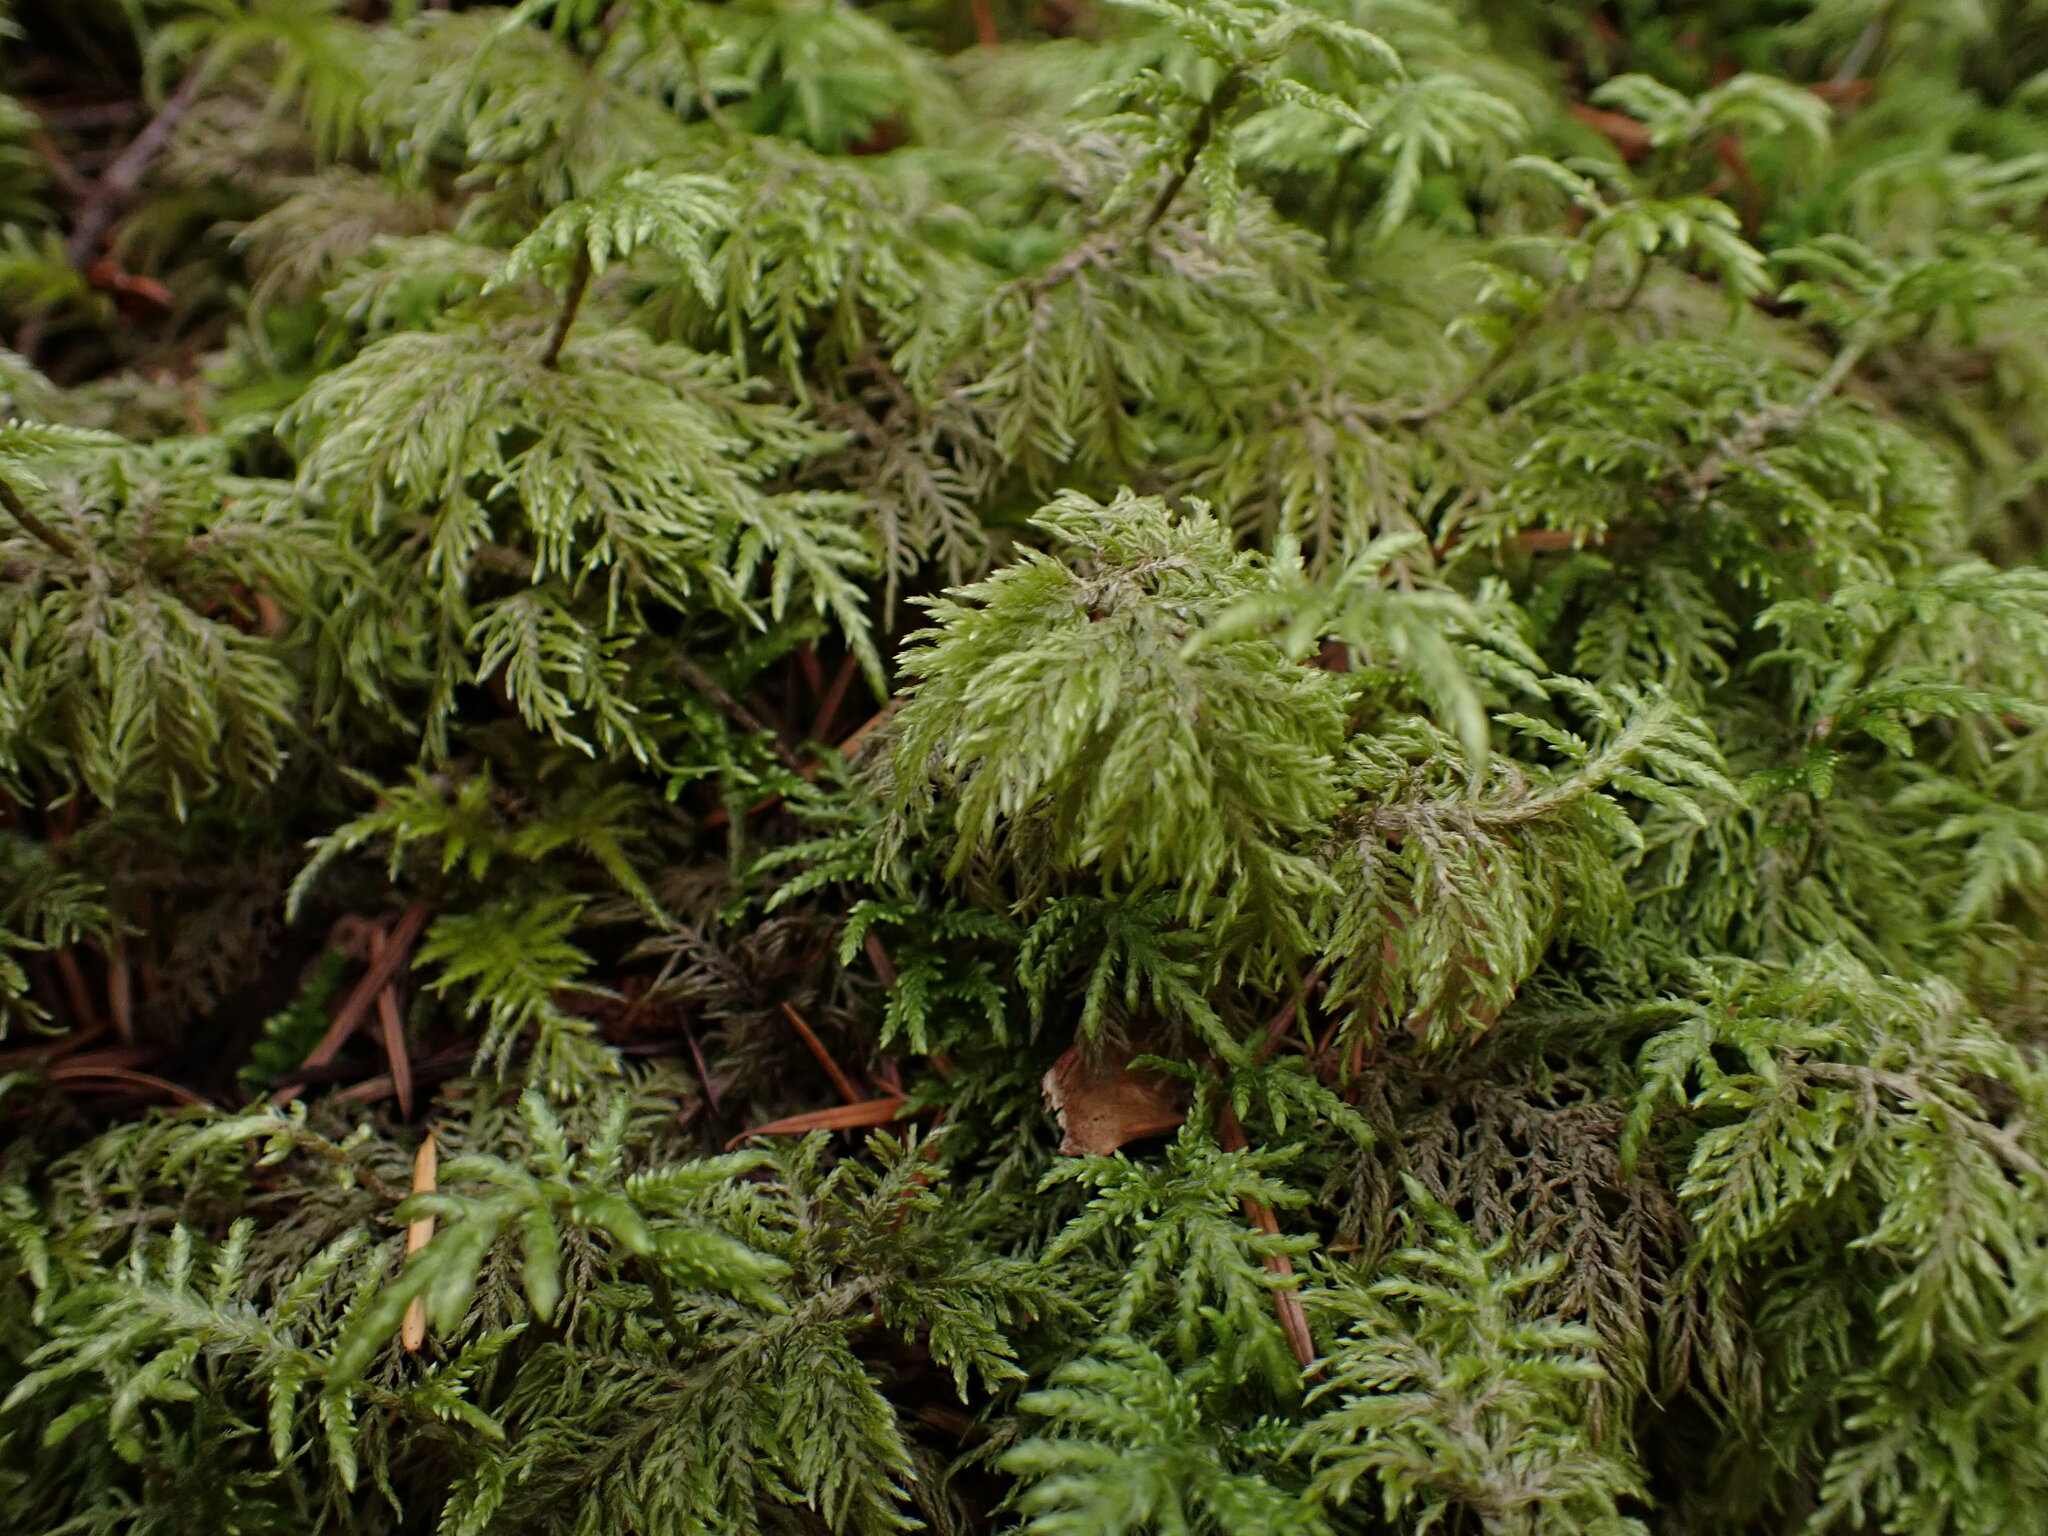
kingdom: Plantae
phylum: Bryophyta
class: Bryopsida
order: Hypnales
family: Hylocomiaceae
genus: Hylocomium
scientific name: Hylocomium splendens
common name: Stairstep moss
